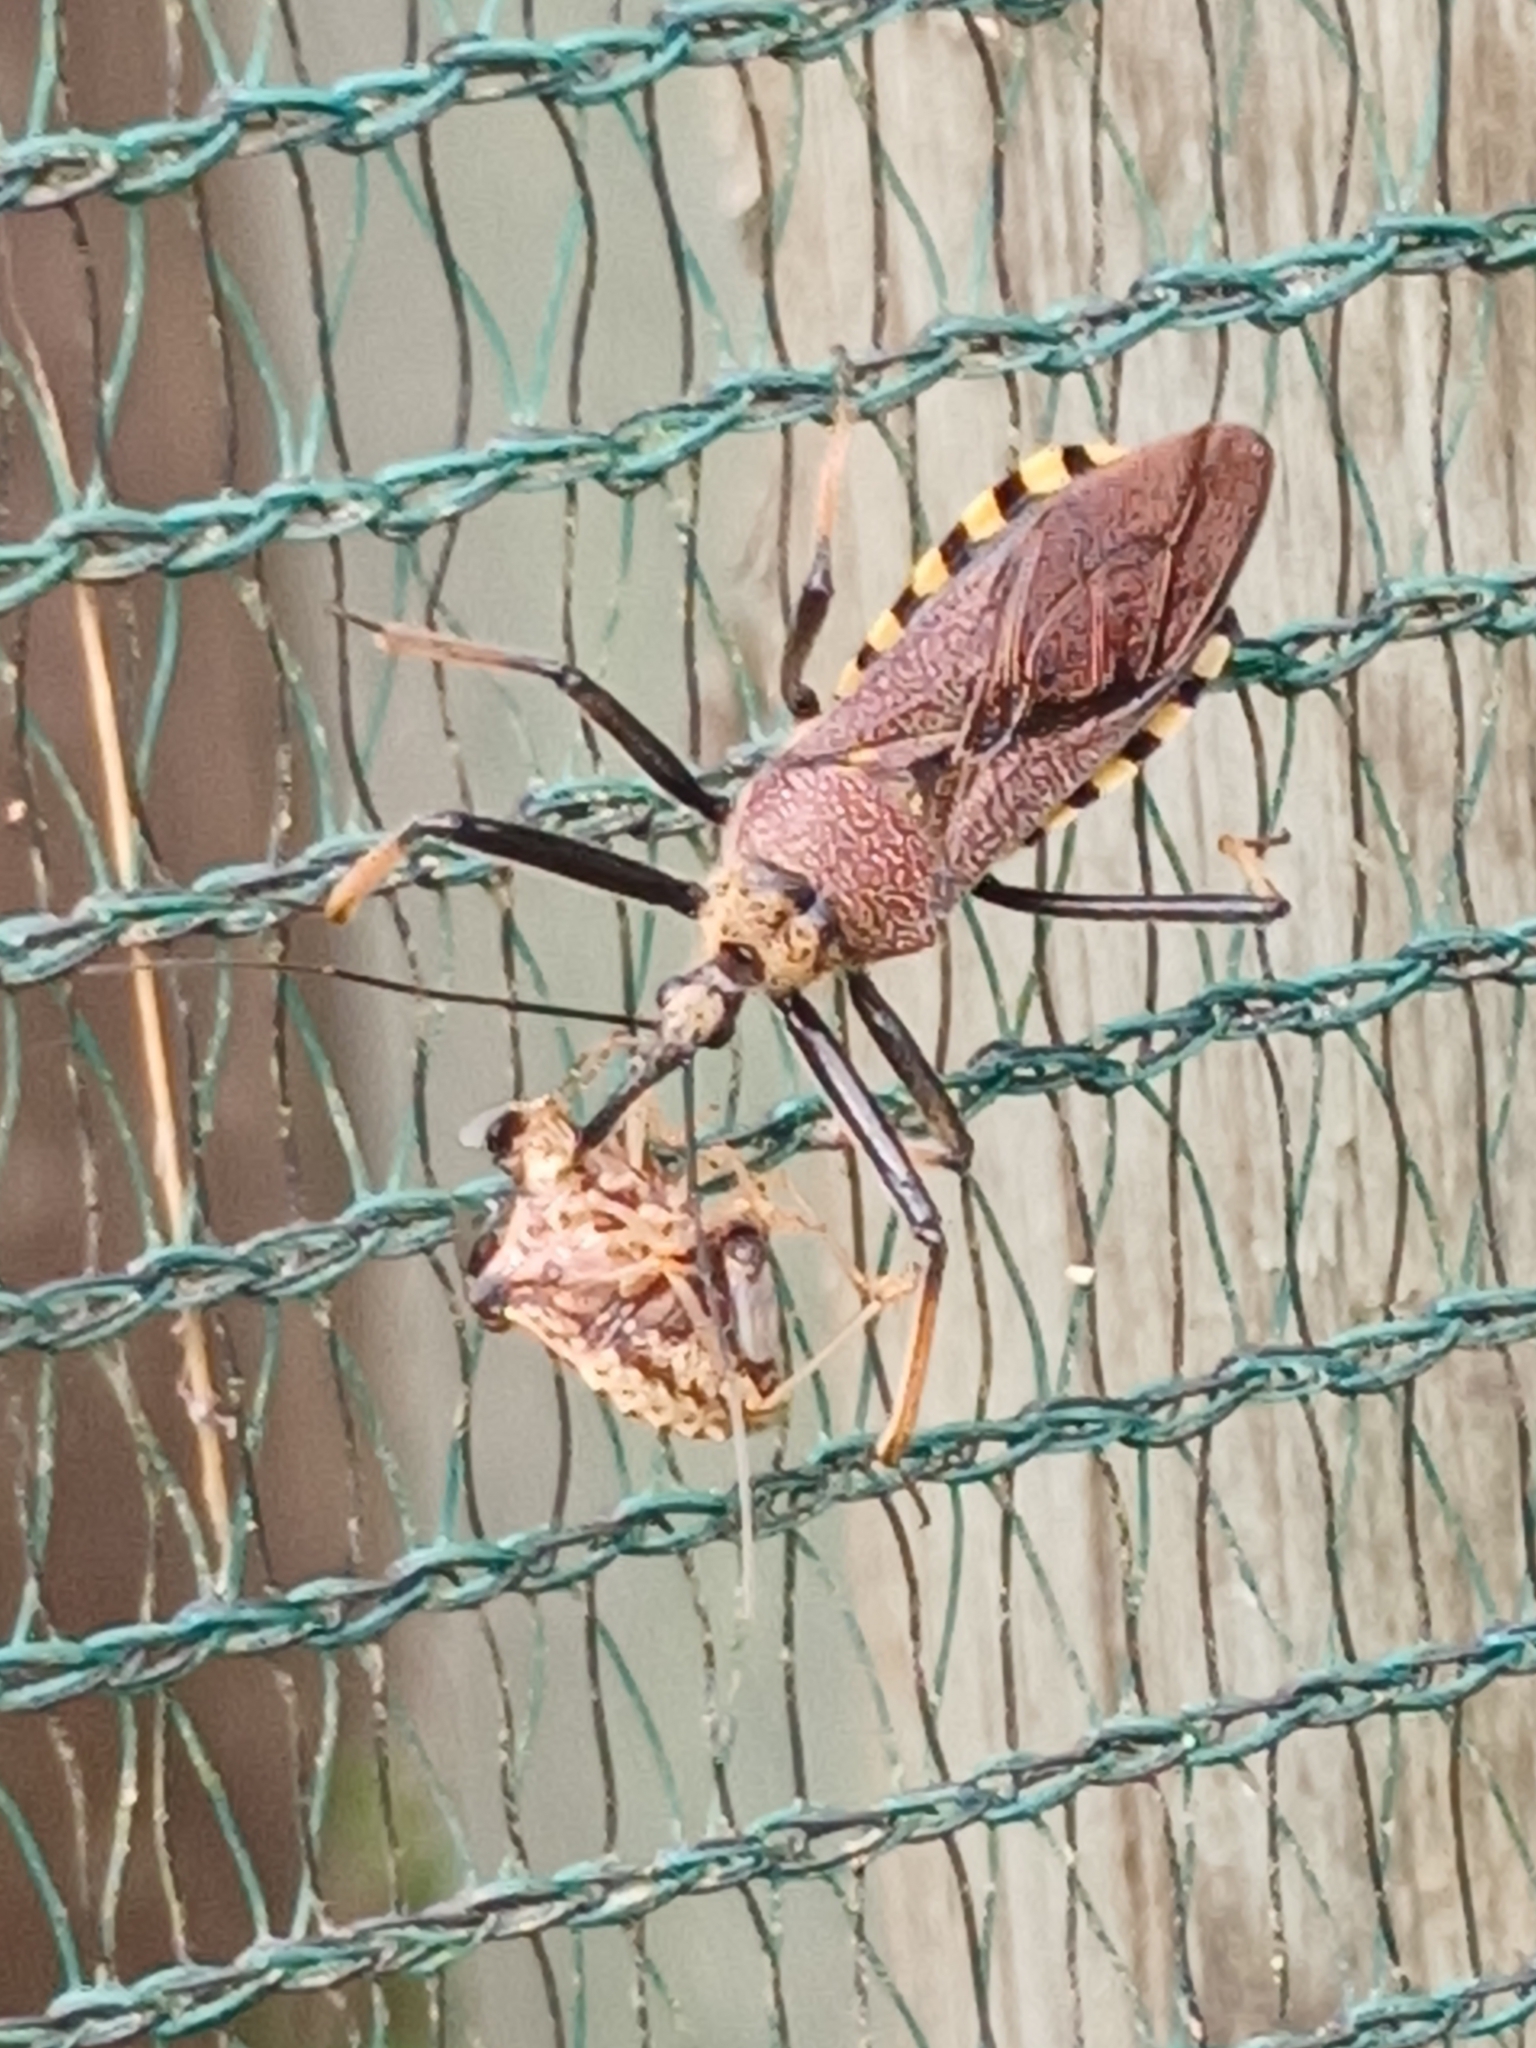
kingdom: Animalia
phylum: Arthropoda
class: Insecta
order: Hemiptera
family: Reduviidae
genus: Rhynocoris
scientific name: Rhynocoris erythrocnemis
